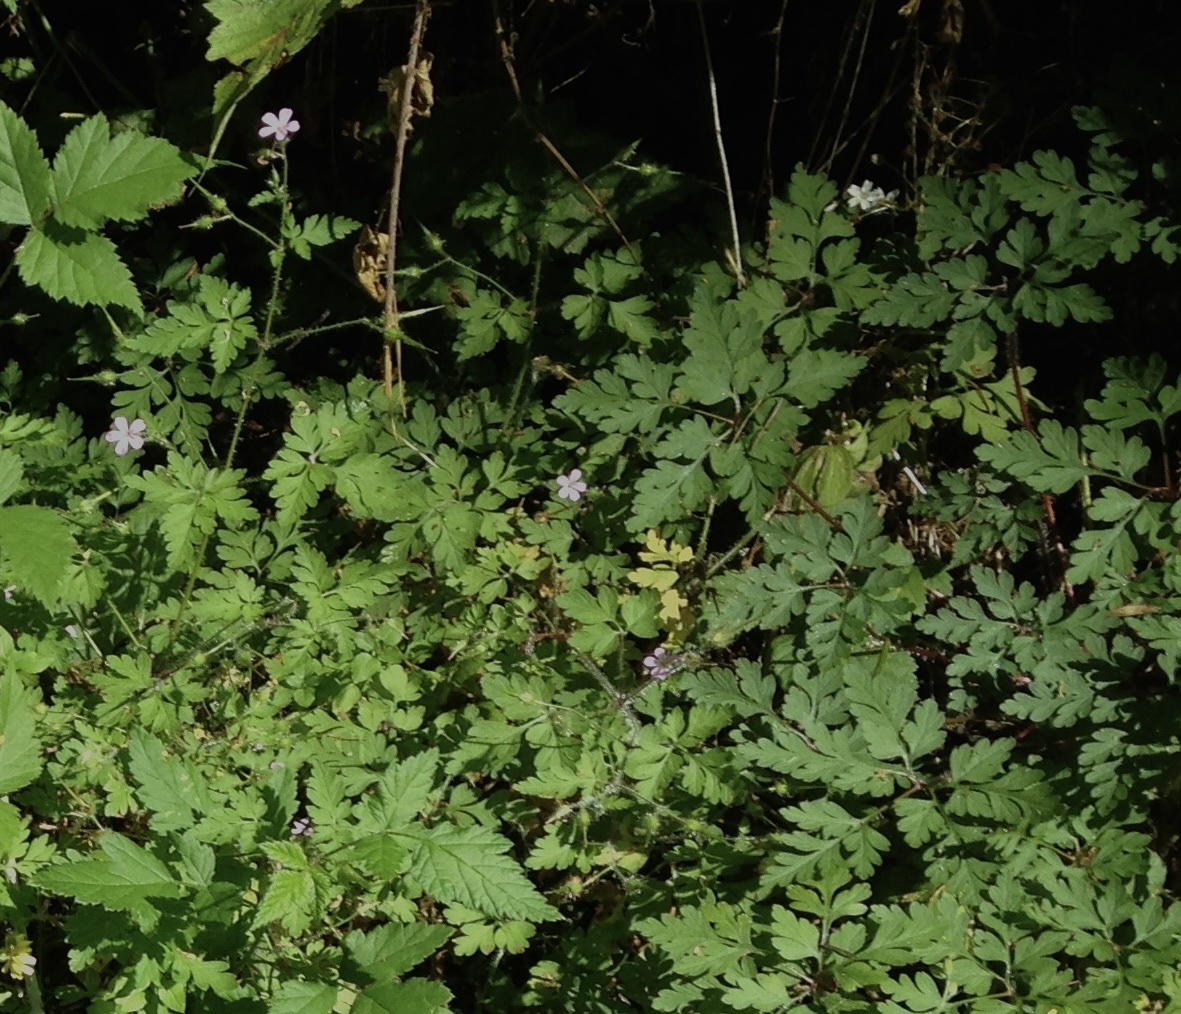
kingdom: Plantae
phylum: Tracheophyta
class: Magnoliopsida
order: Geraniales
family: Geraniaceae
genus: Geranium
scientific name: Geranium robertianum
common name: Herb-robert
